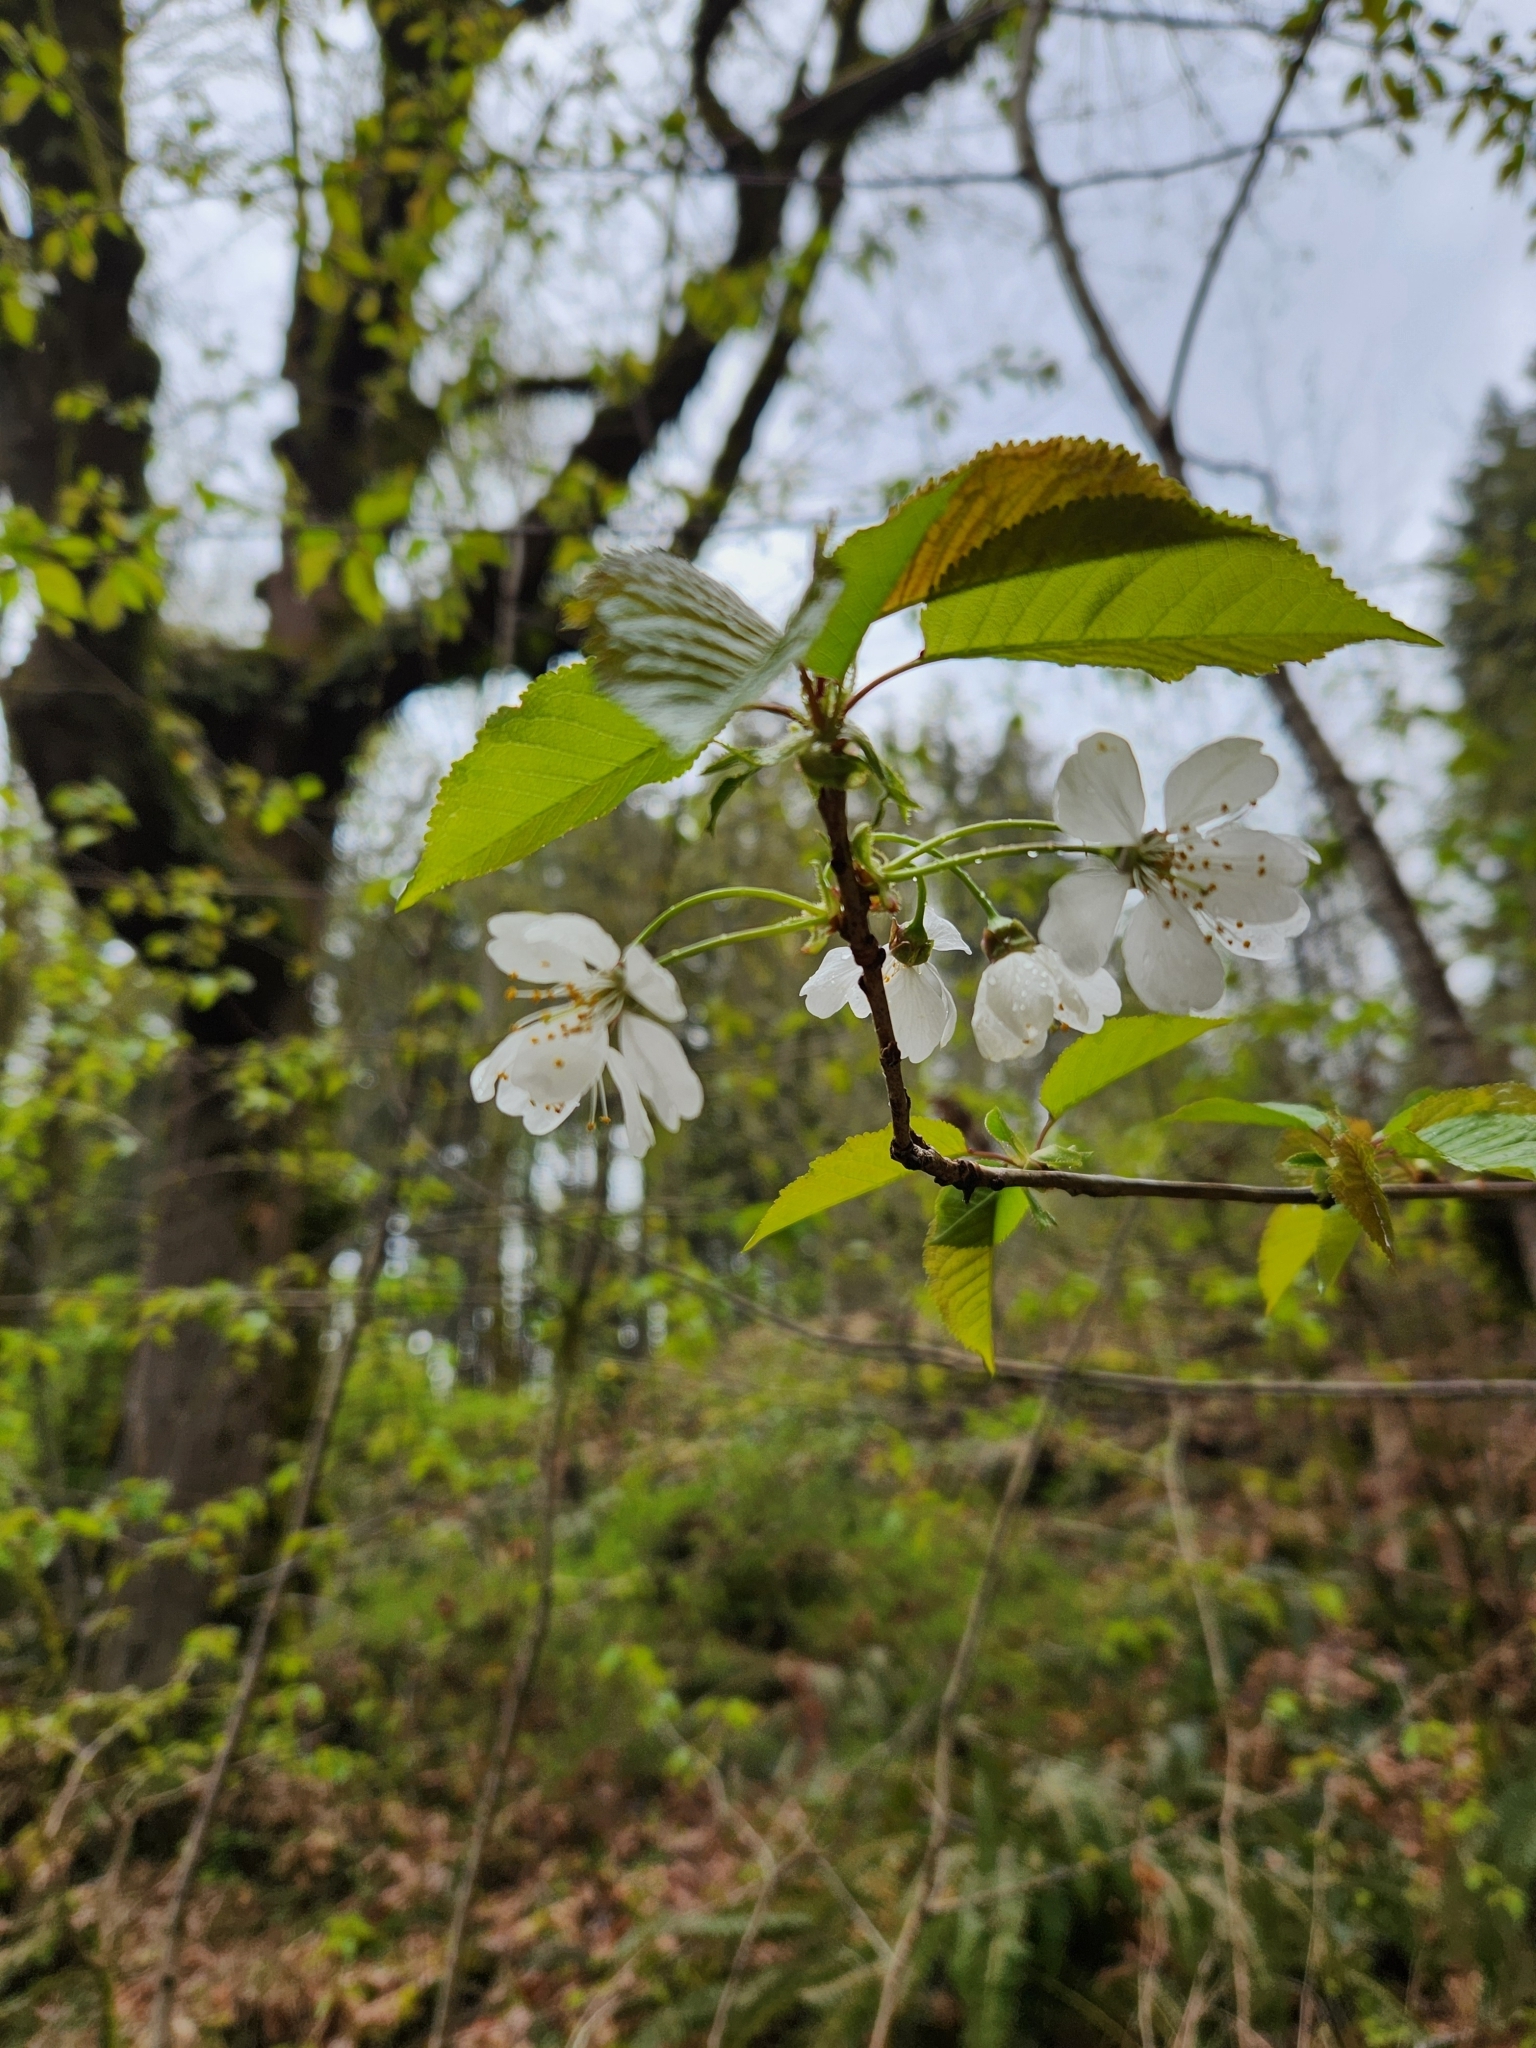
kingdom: Plantae
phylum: Tracheophyta
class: Magnoliopsida
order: Rosales
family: Rosaceae
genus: Prunus
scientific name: Prunus avium
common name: Sweet cherry
